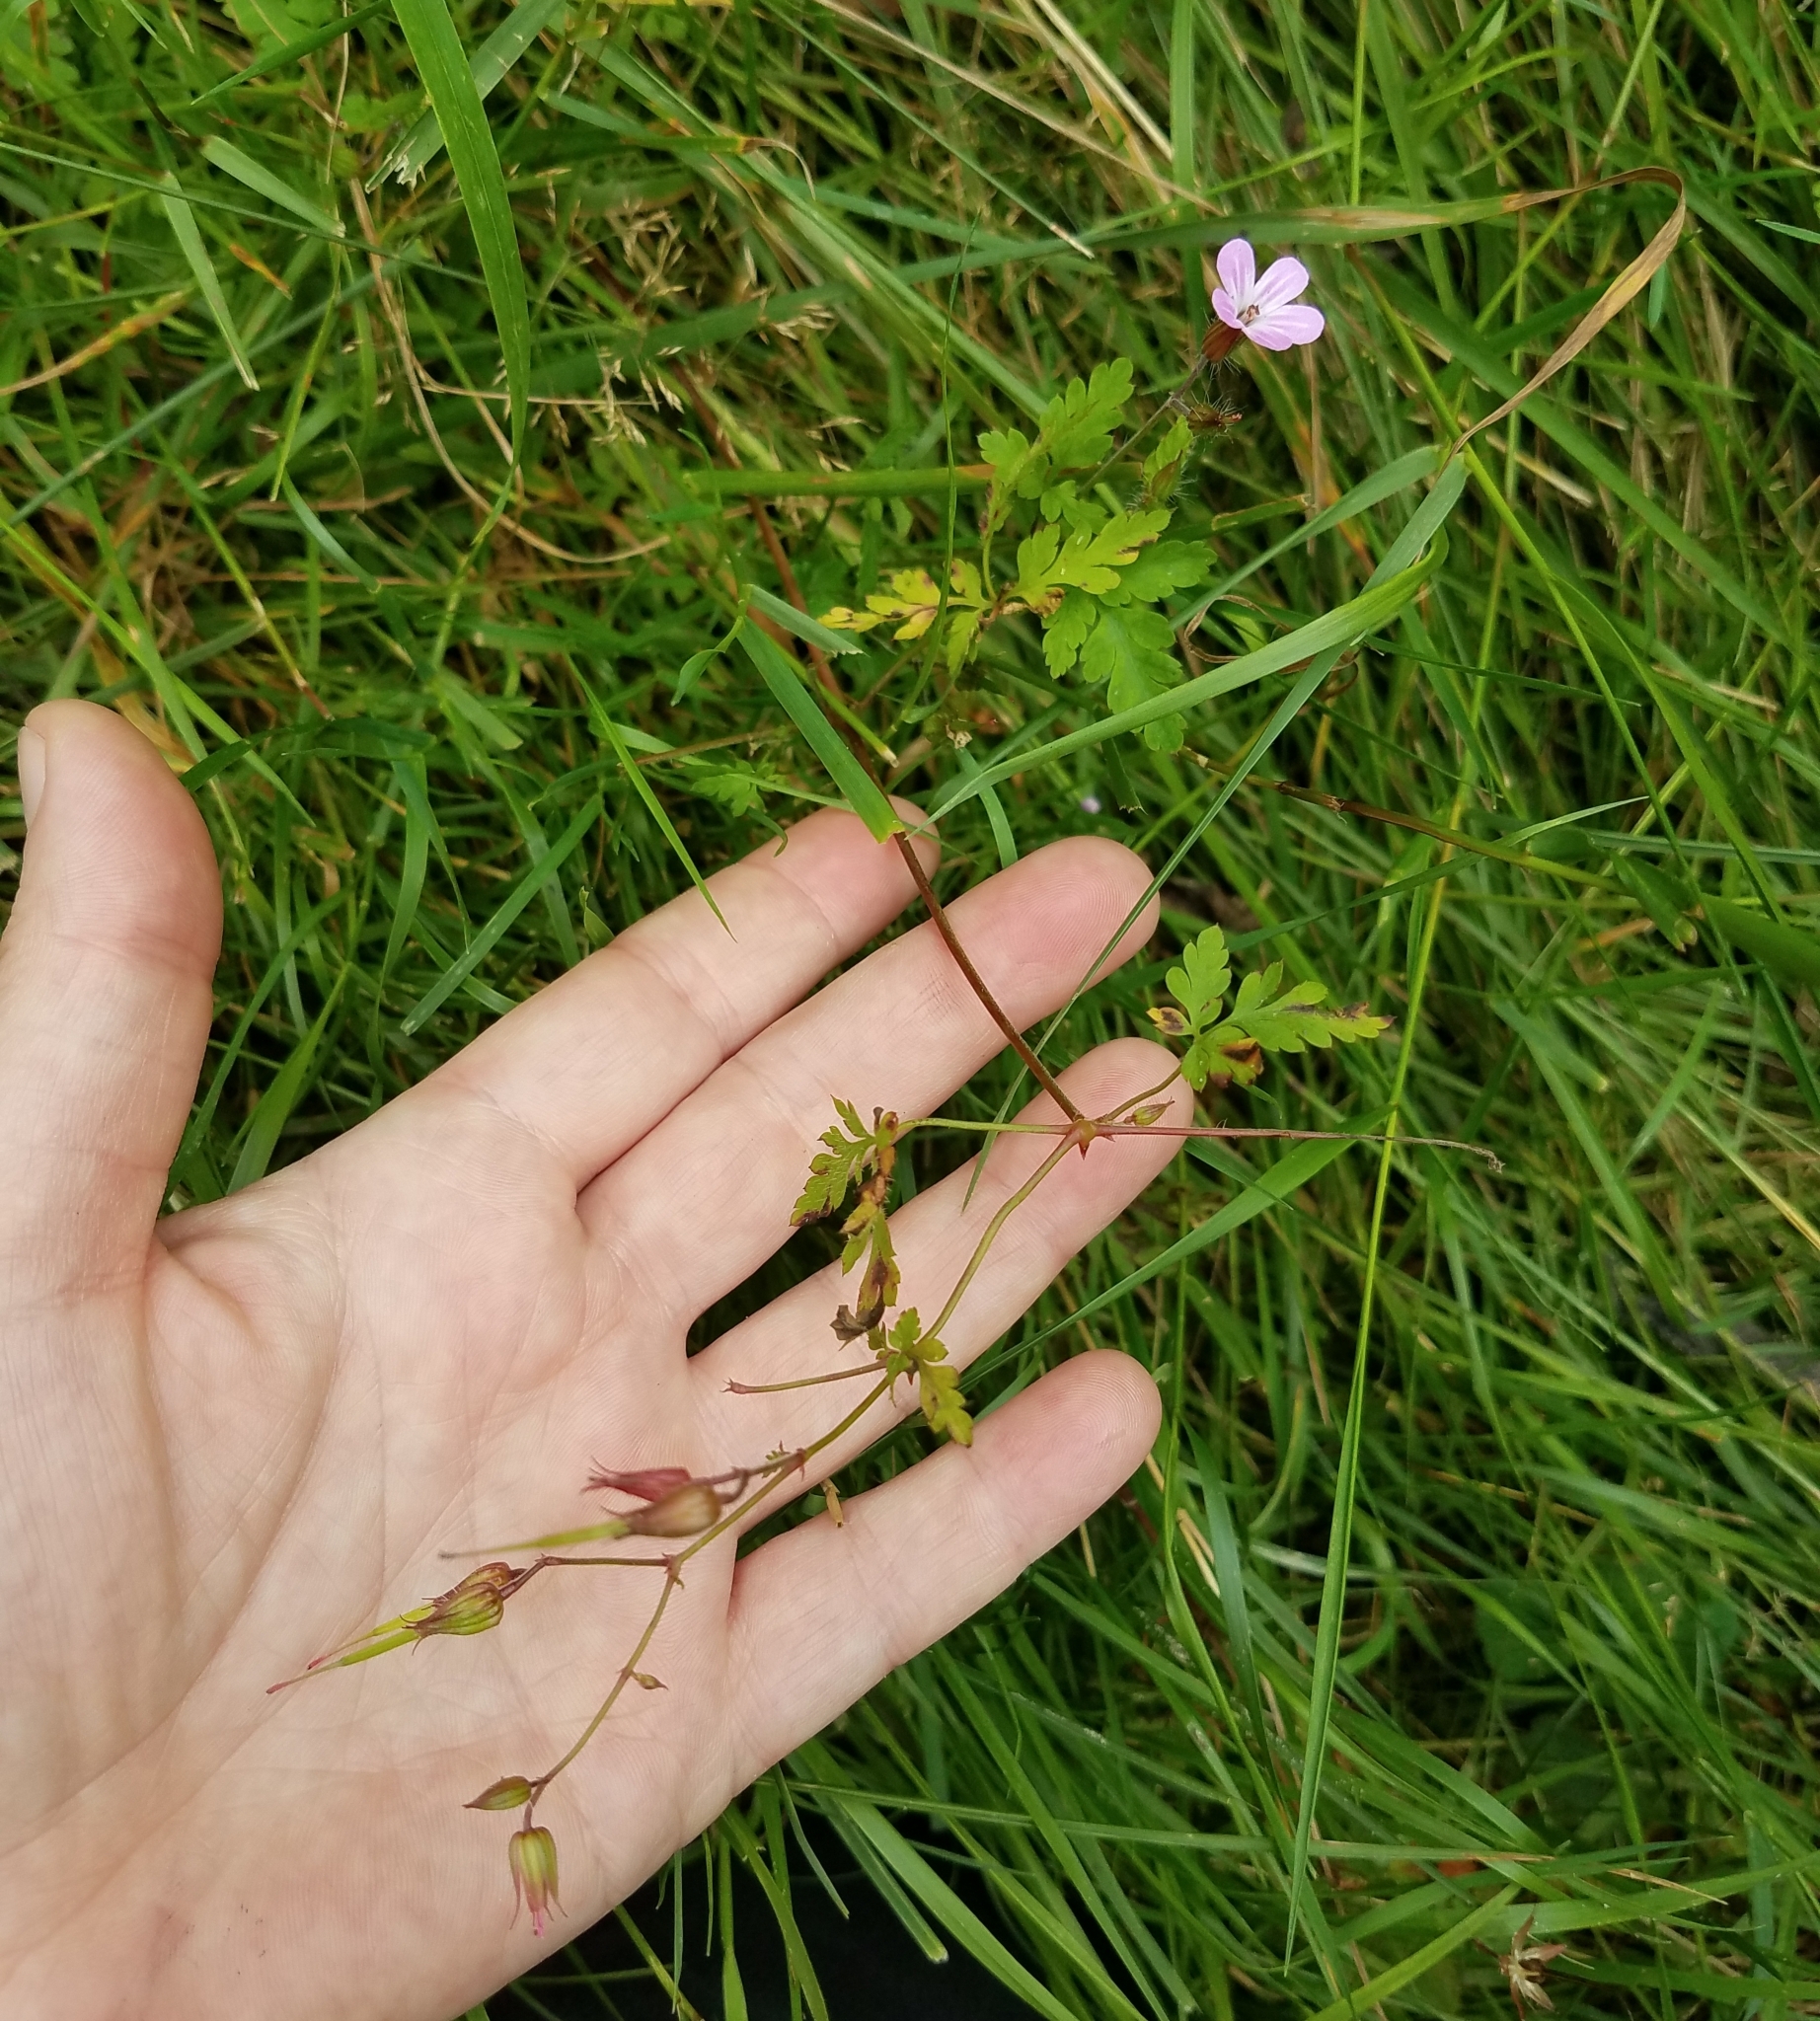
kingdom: Plantae
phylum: Tracheophyta
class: Magnoliopsida
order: Geraniales
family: Geraniaceae
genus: Geranium
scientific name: Geranium robertianum
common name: Herb-robert
